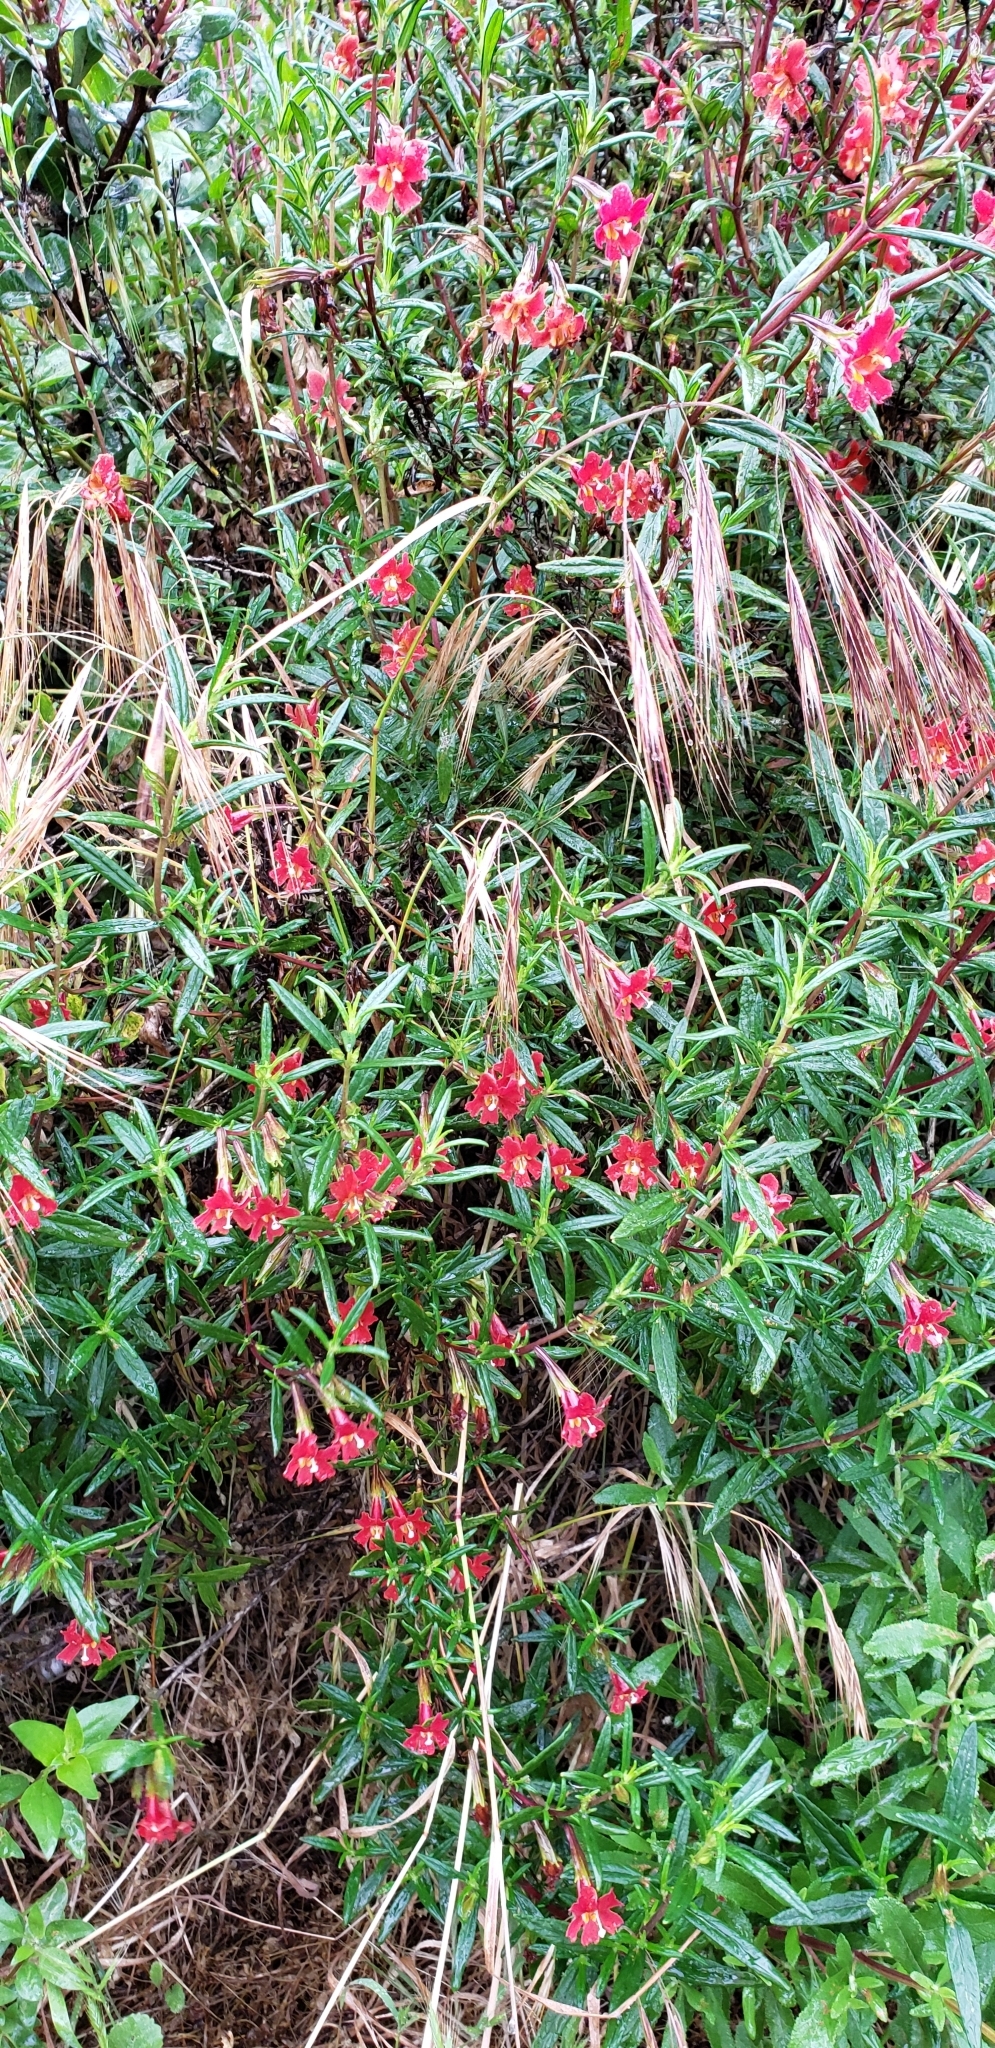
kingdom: Plantae
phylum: Tracheophyta
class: Magnoliopsida
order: Lamiales
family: Phrymaceae
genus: Diplacus
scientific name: Diplacus puniceus
